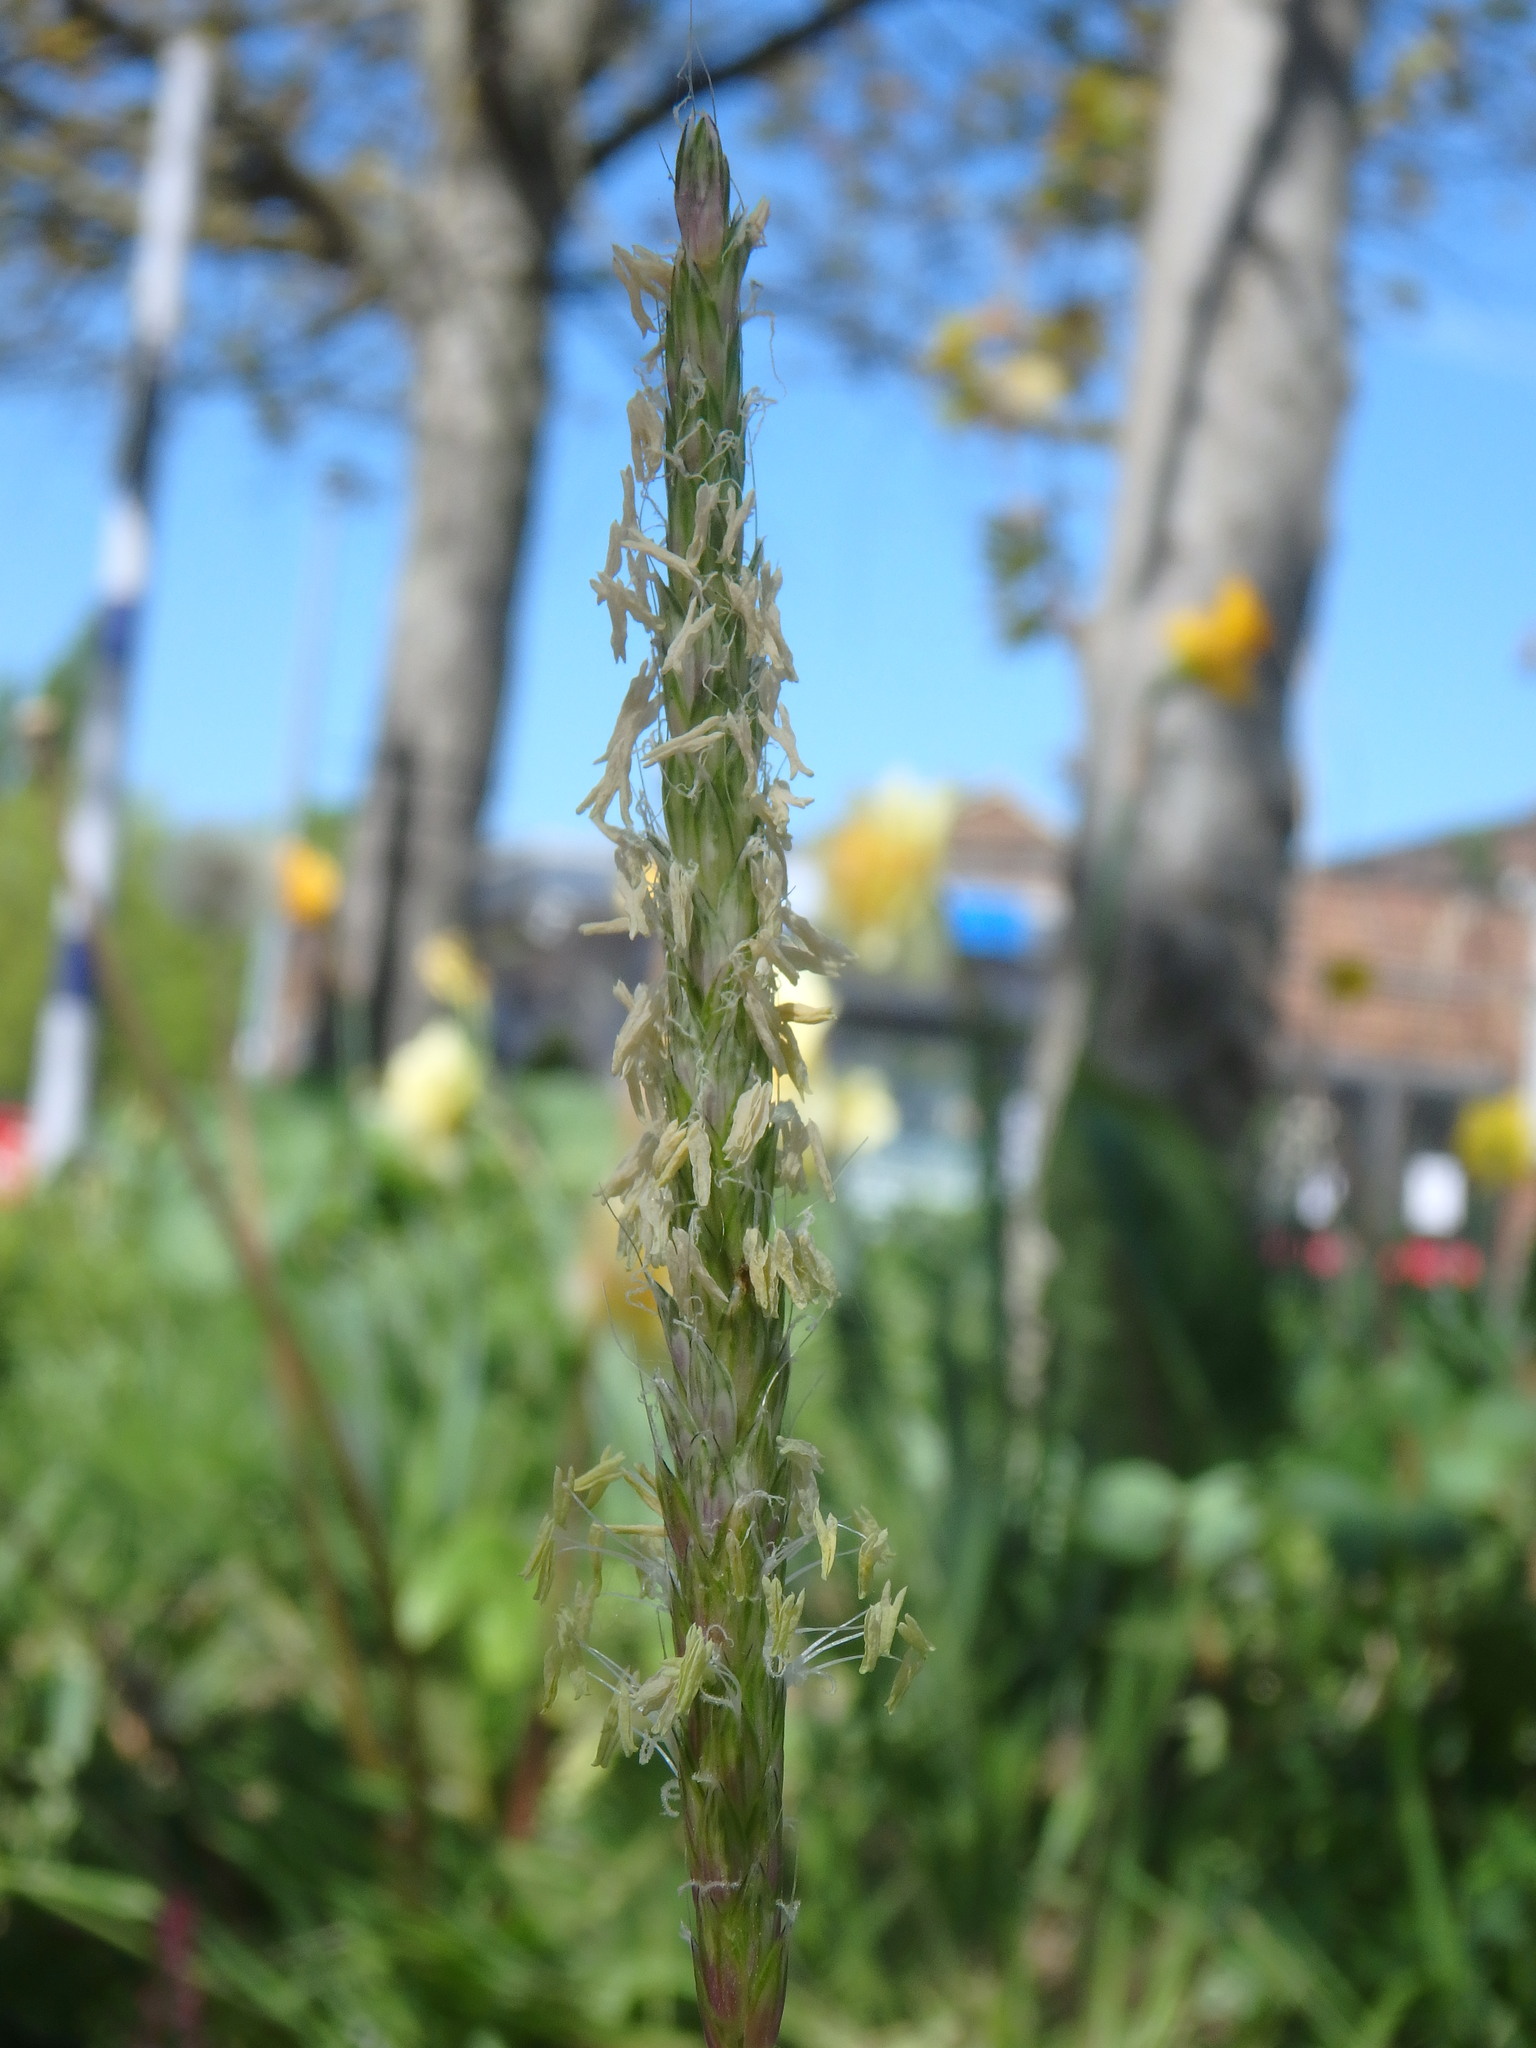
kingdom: Plantae
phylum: Tracheophyta
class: Liliopsida
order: Poales
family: Poaceae
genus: Alopecurus
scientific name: Alopecurus myosuroides
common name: Black-grass
